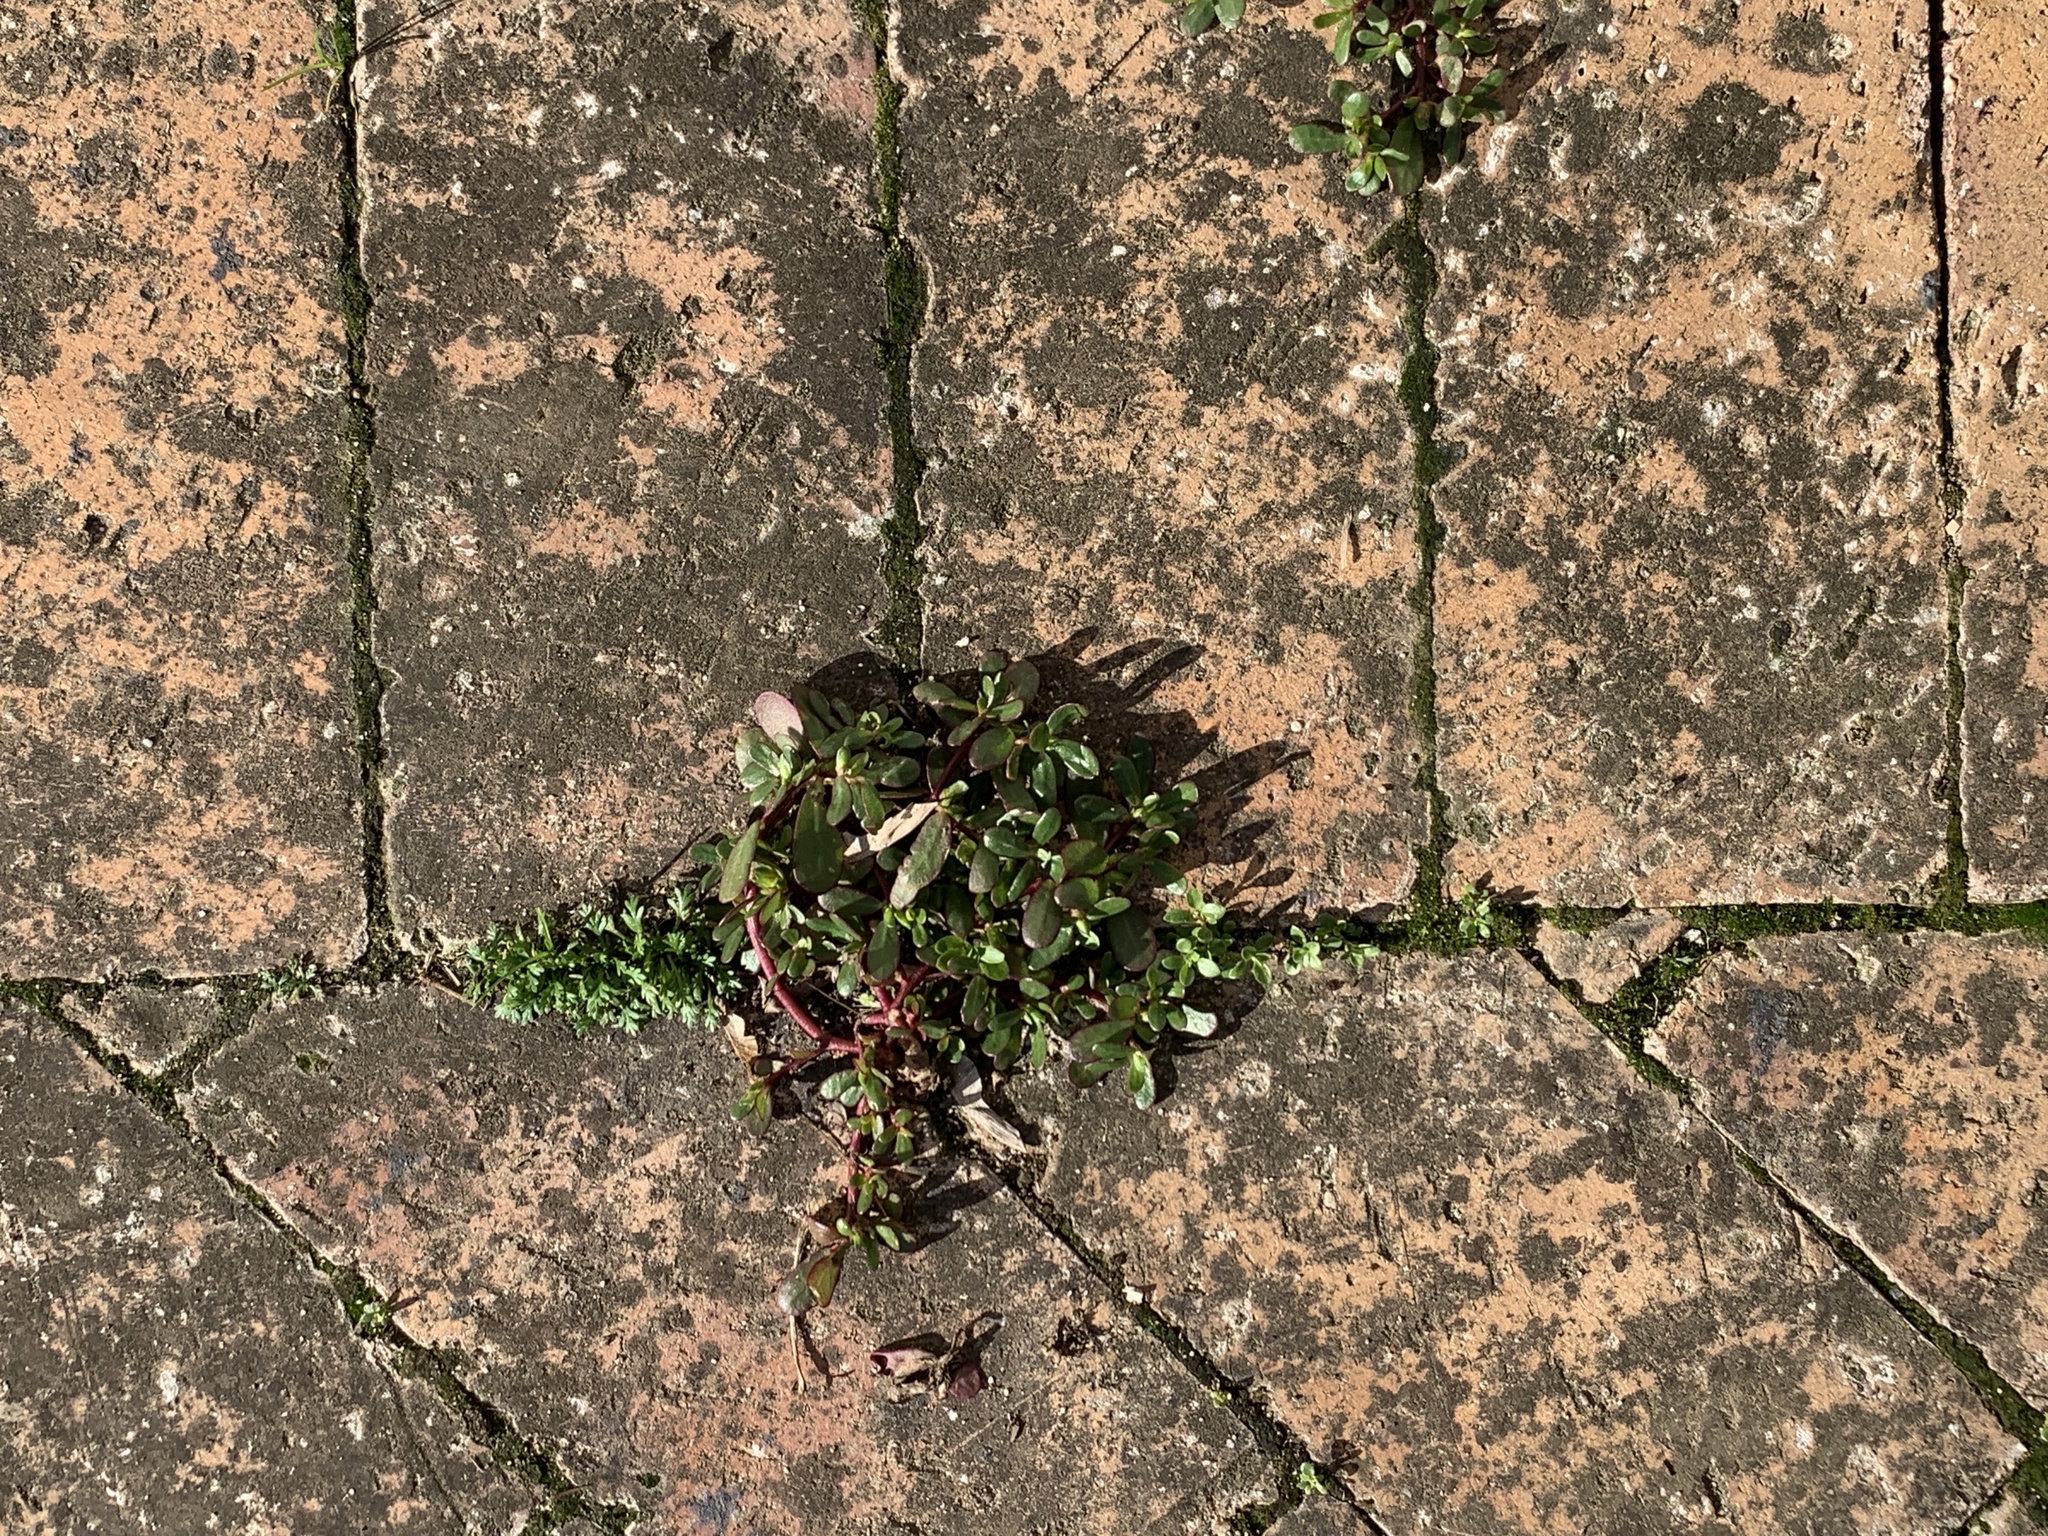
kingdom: Plantae
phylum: Tracheophyta
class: Magnoliopsida
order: Caryophyllales
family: Portulacaceae
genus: Portulaca
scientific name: Portulaca oleracea
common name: Common purslane
